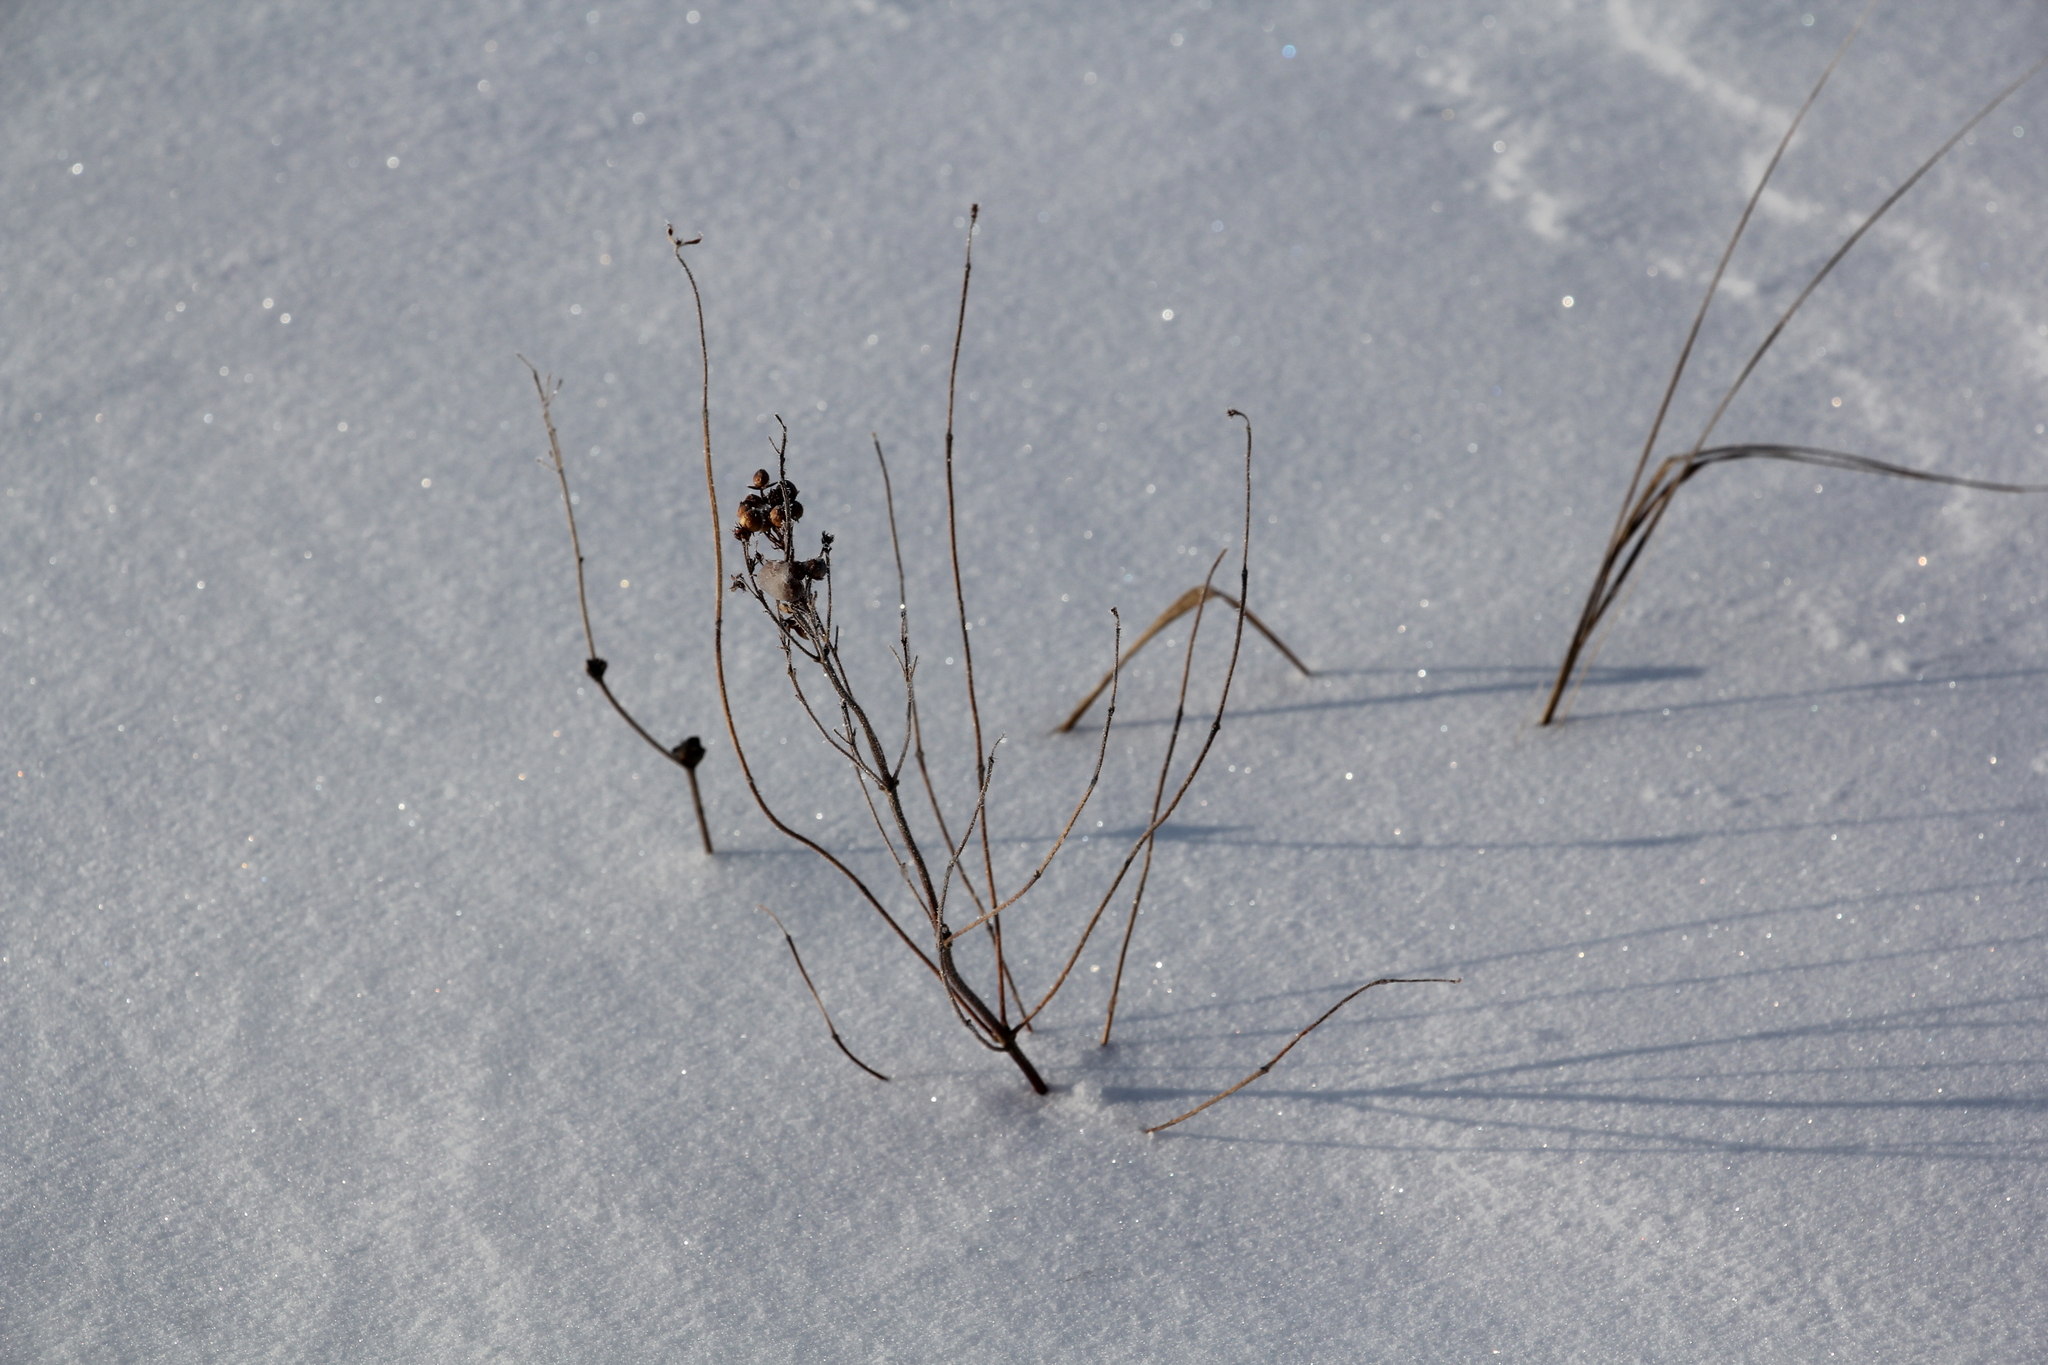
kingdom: Plantae
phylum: Tracheophyta
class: Magnoliopsida
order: Ericales
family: Primulaceae
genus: Lysimachia
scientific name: Lysimachia vulgaris
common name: Yellow loosestrife
